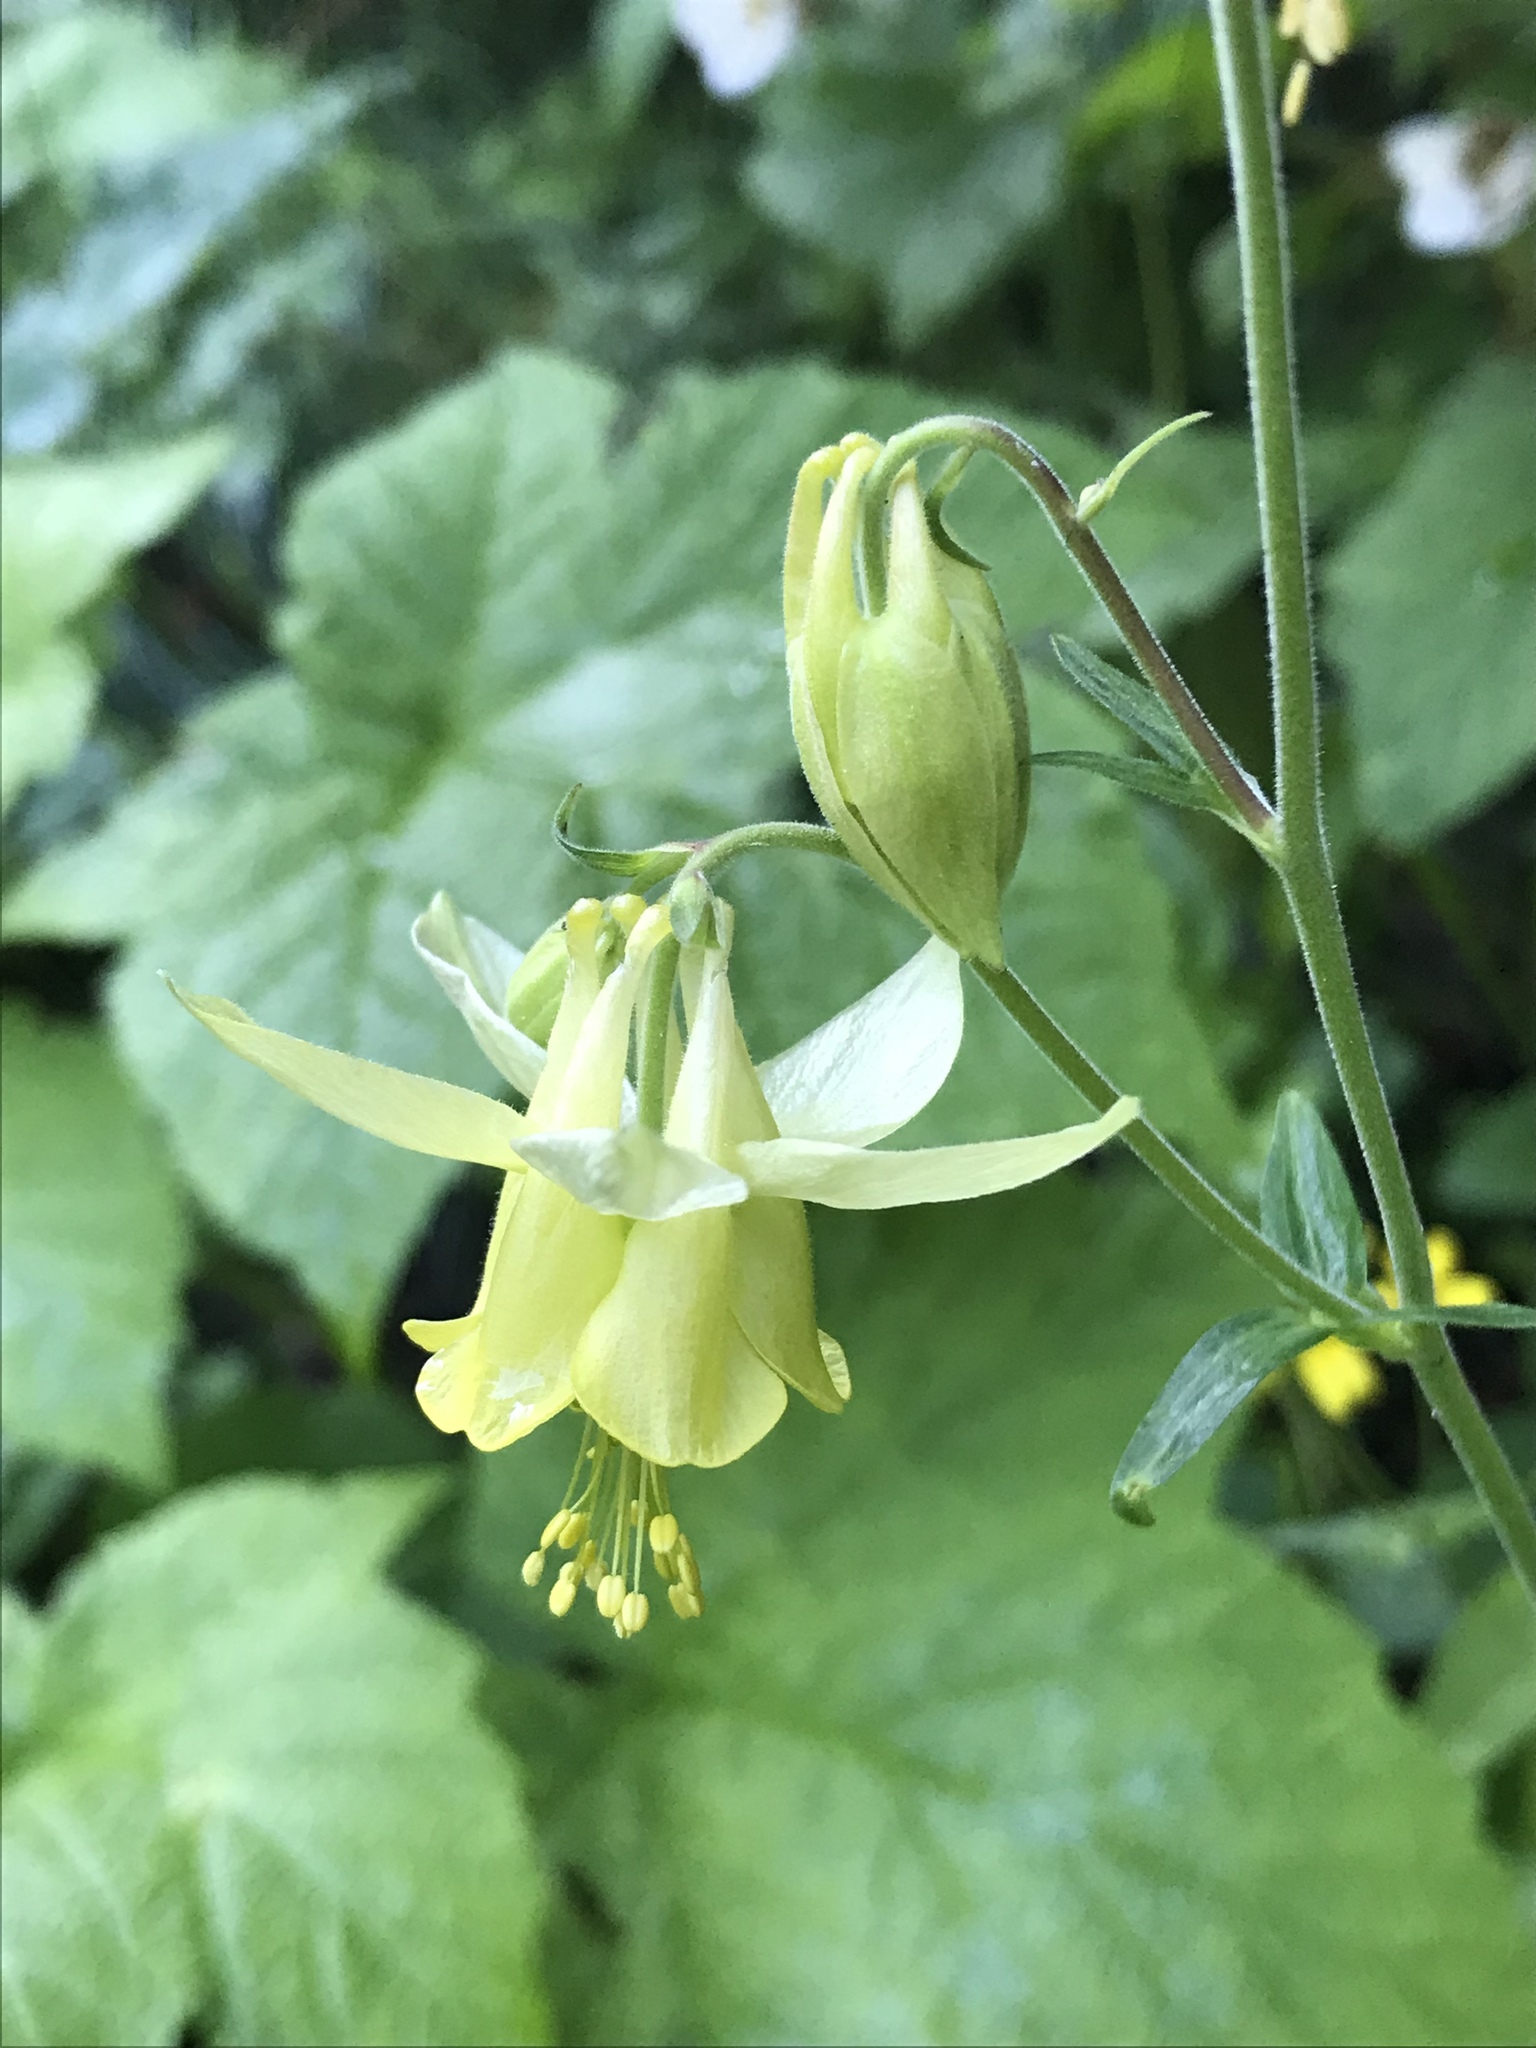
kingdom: Plantae
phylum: Tracheophyta
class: Magnoliopsida
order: Ranunculales
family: Ranunculaceae
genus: Aquilegia
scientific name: Aquilegia flavescens
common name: Yellow columbine
